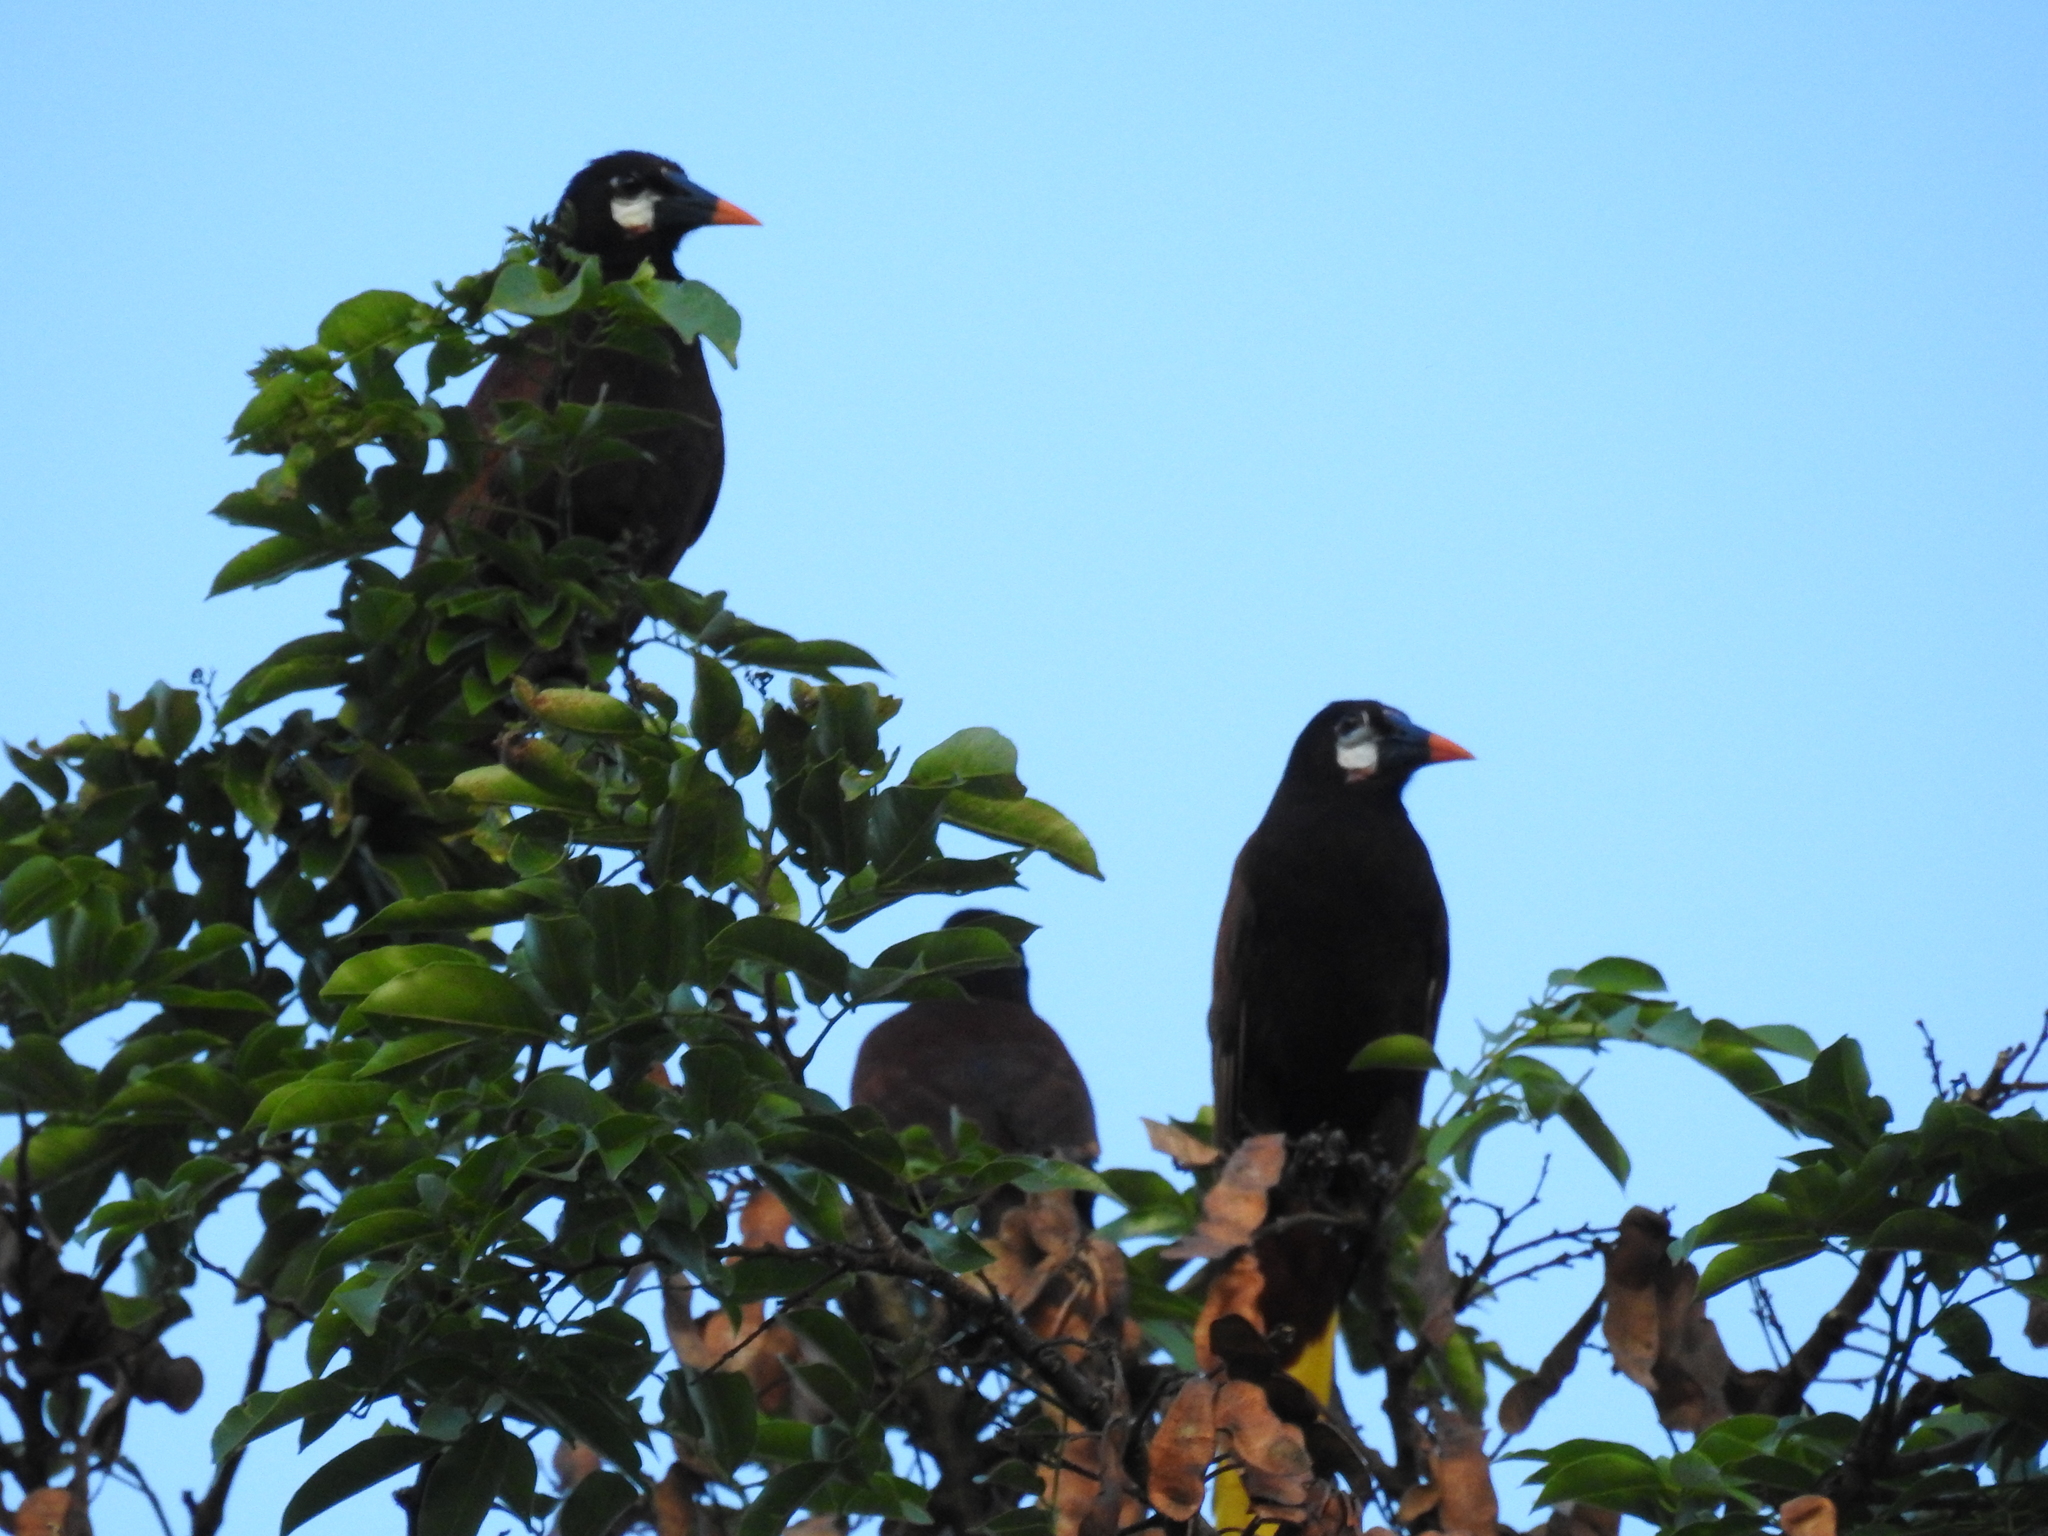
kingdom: Animalia
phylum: Chordata
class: Aves
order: Passeriformes
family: Icteridae
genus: Psarocolius
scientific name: Psarocolius montezuma
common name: Montezuma oropendola
